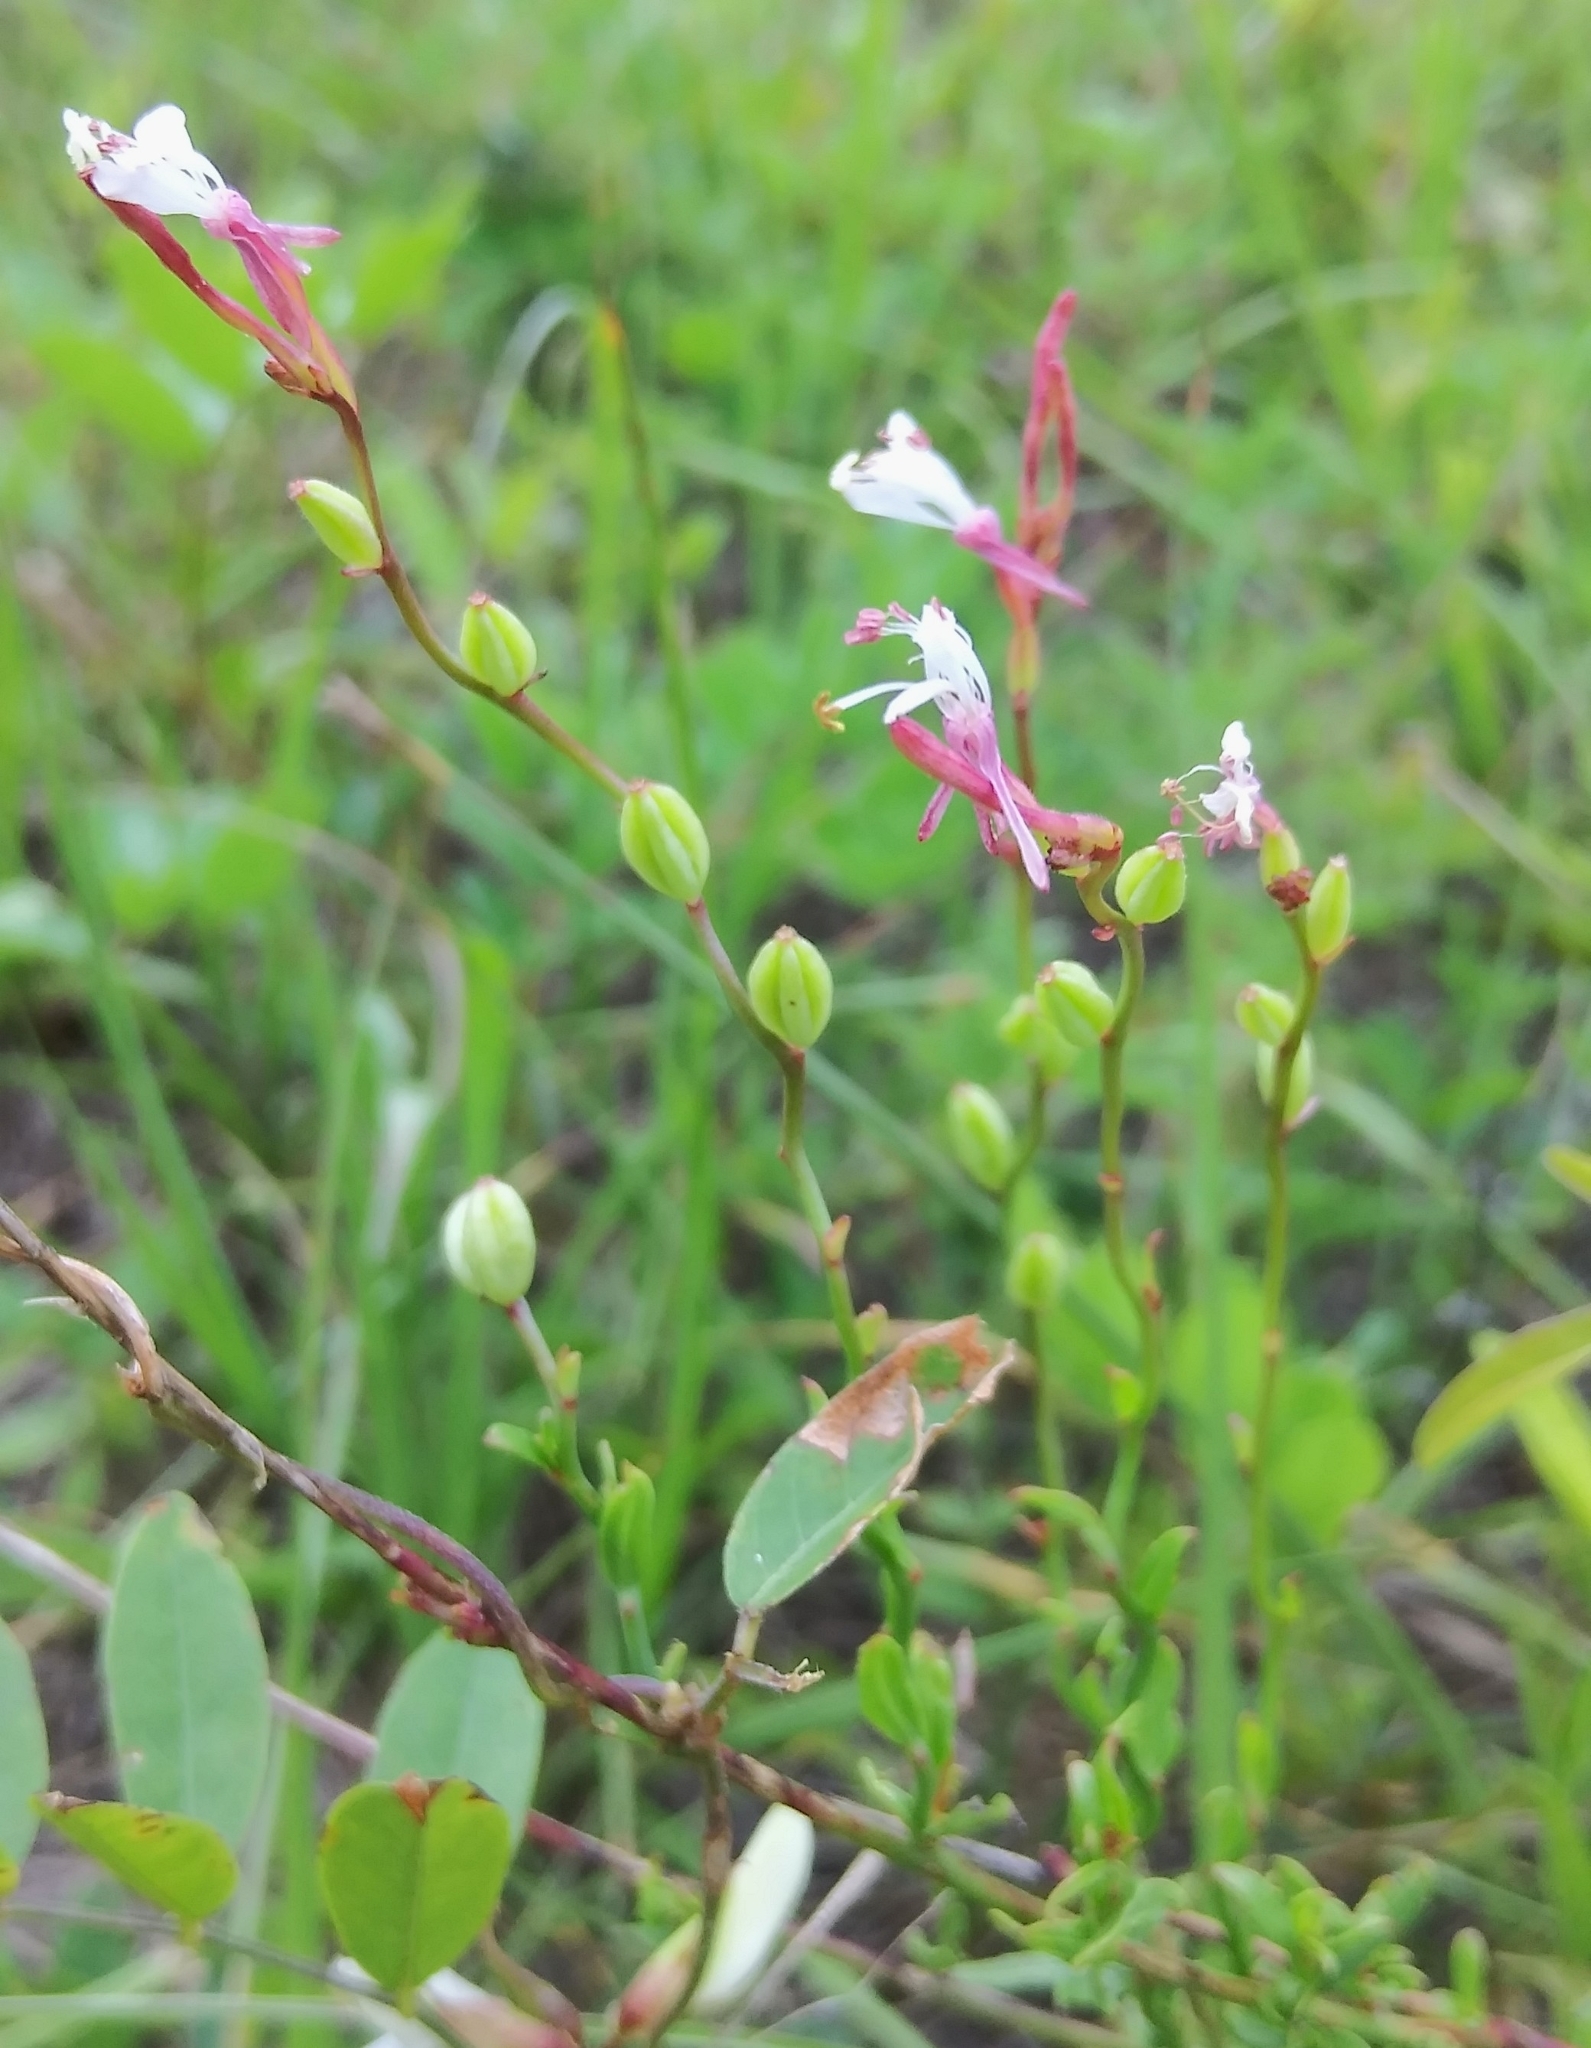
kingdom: Plantae
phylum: Tracheophyta
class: Magnoliopsida
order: Myrtales
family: Onagraceae
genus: Oenothera
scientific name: Oenothera simulans
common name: Southern beeblossom
